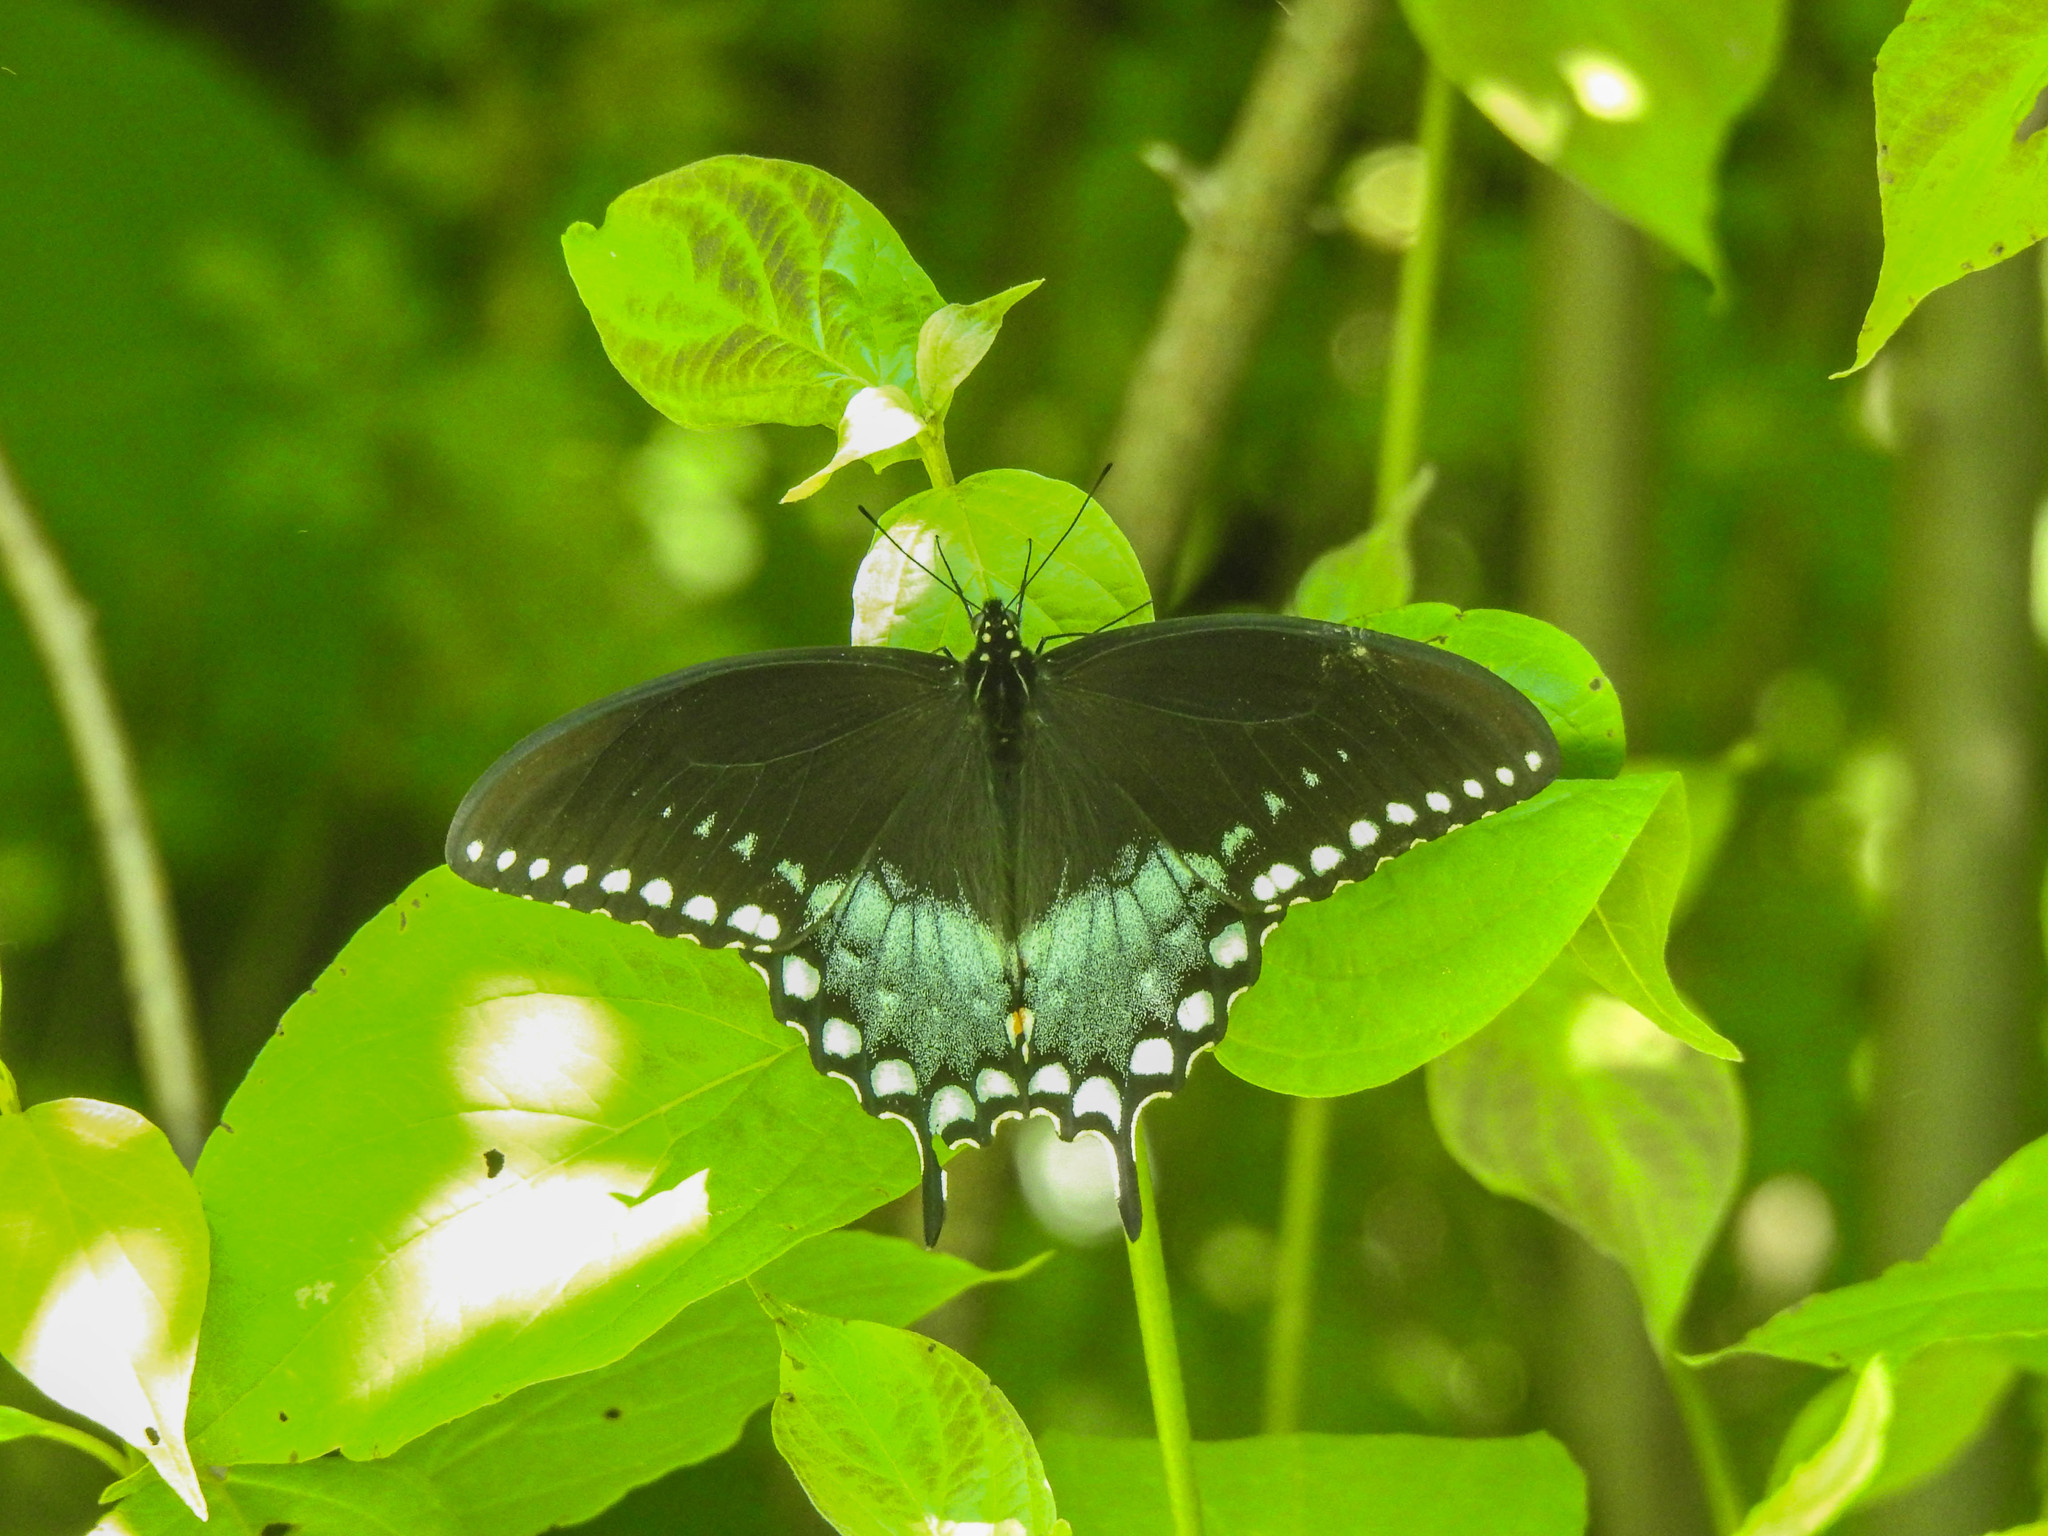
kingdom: Animalia
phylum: Arthropoda
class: Insecta
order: Lepidoptera
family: Papilionidae
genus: Papilio
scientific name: Papilio troilus
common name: Spicebush swallowtail
